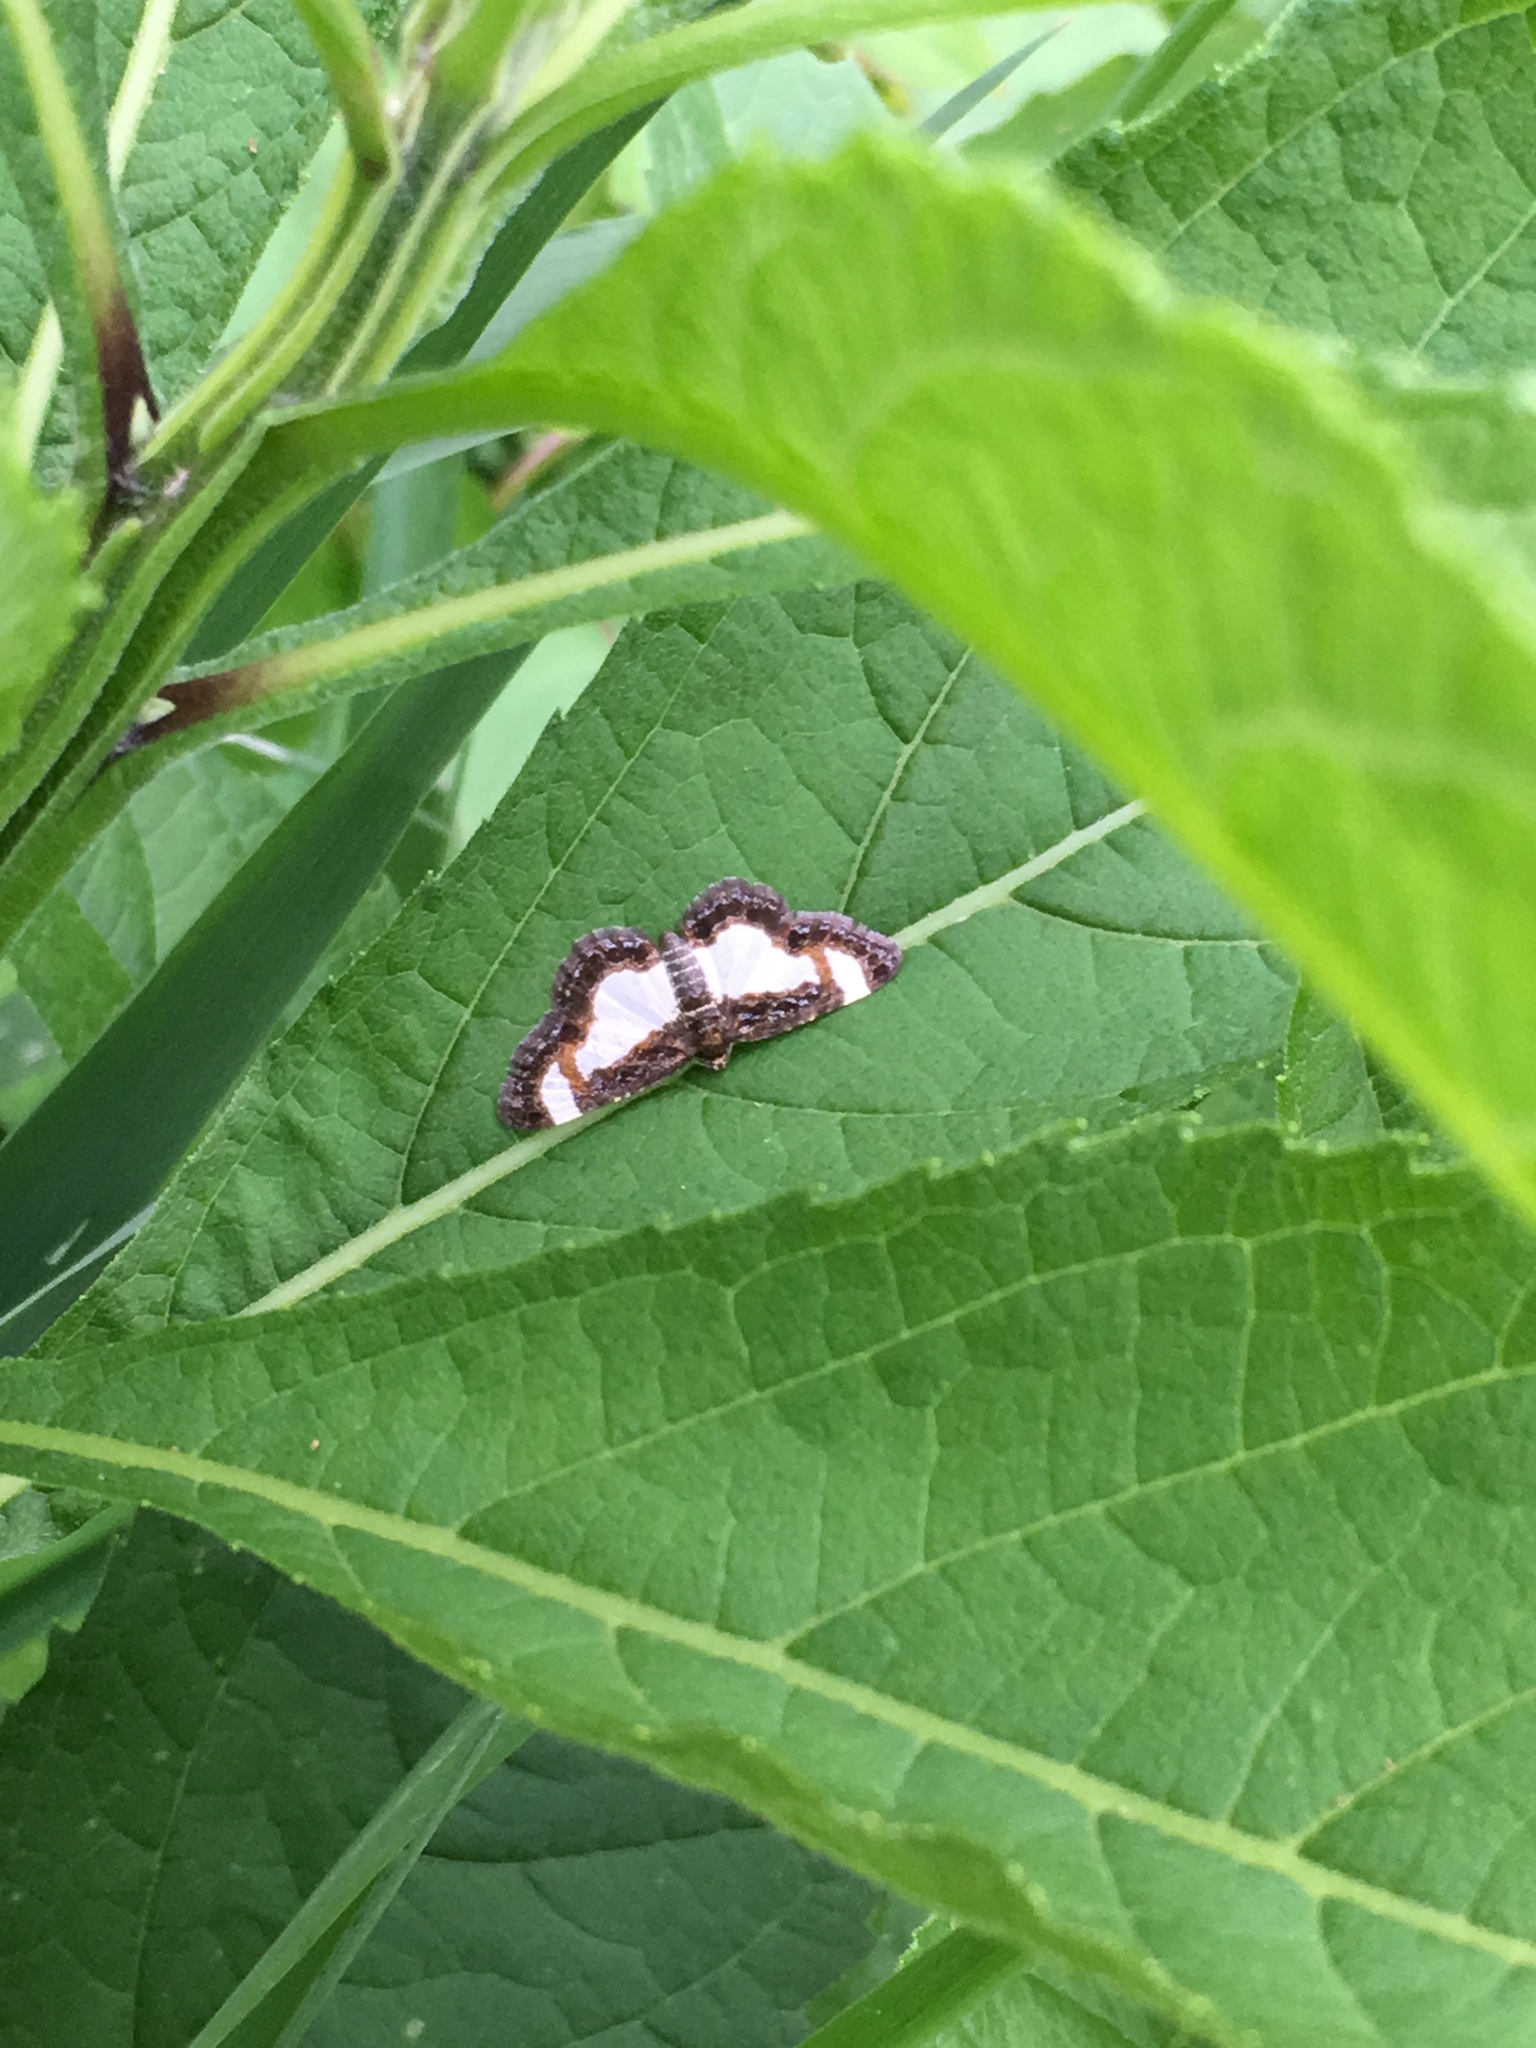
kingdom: Animalia
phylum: Arthropoda
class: Insecta
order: Lepidoptera
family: Geometridae
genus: Heliomata
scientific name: Heliomata cycladata
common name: Common spring moth
